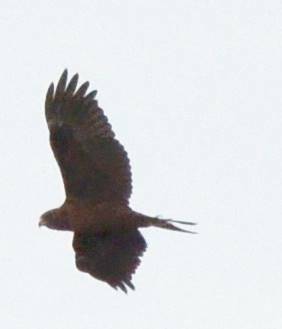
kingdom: Animalia
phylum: Chordata
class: Aves
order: Accipitriformes
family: Accipitridae
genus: Circus
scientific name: Circus aeruginosus
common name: Western marsh harrier
